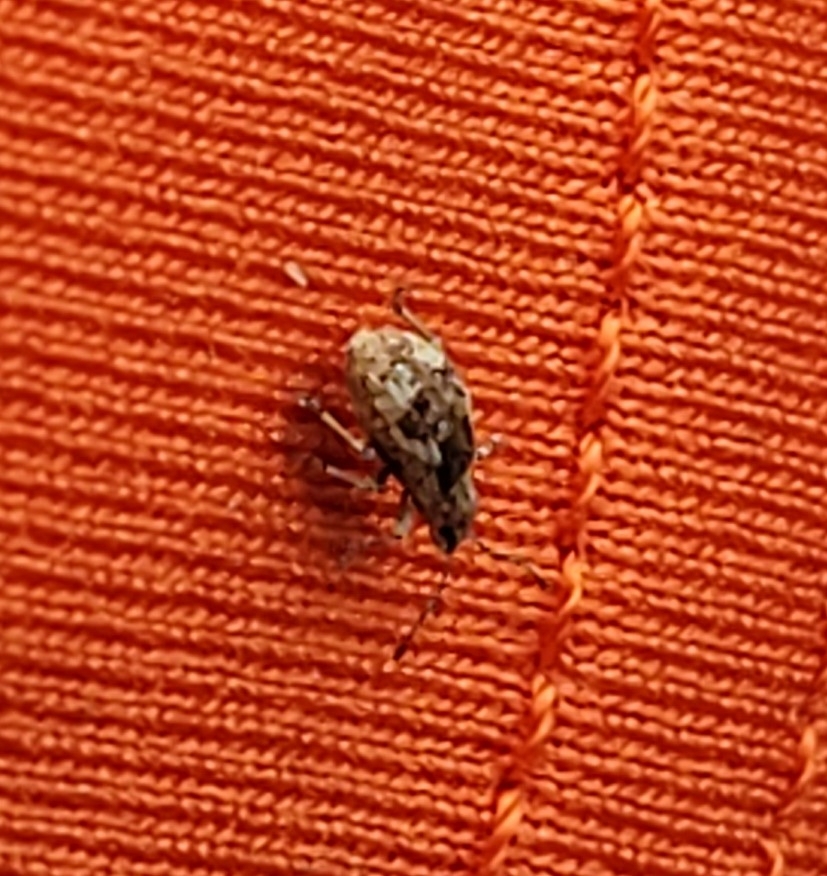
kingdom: Animalia
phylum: Arthropoda
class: Insecta
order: Coleoptera
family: Curculionidae
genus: Pseudoedophrys
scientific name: Pseudoedophrys hilleri
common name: Weevil
